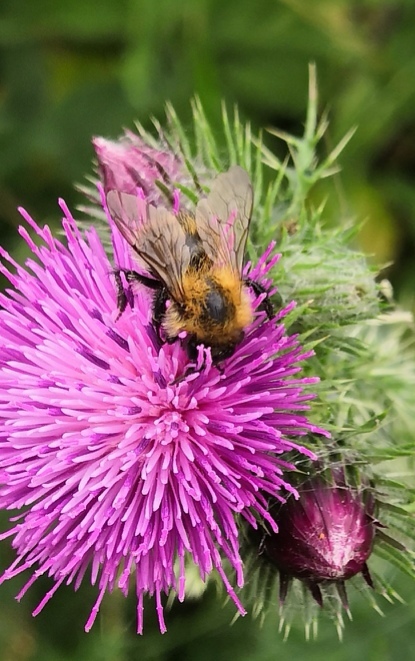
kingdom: Animalia
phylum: Arthropoda
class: Insecta
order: Hymenoptera
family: Apidae
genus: Bombus
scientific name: Bombus pascuorum
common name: Common carder bee
